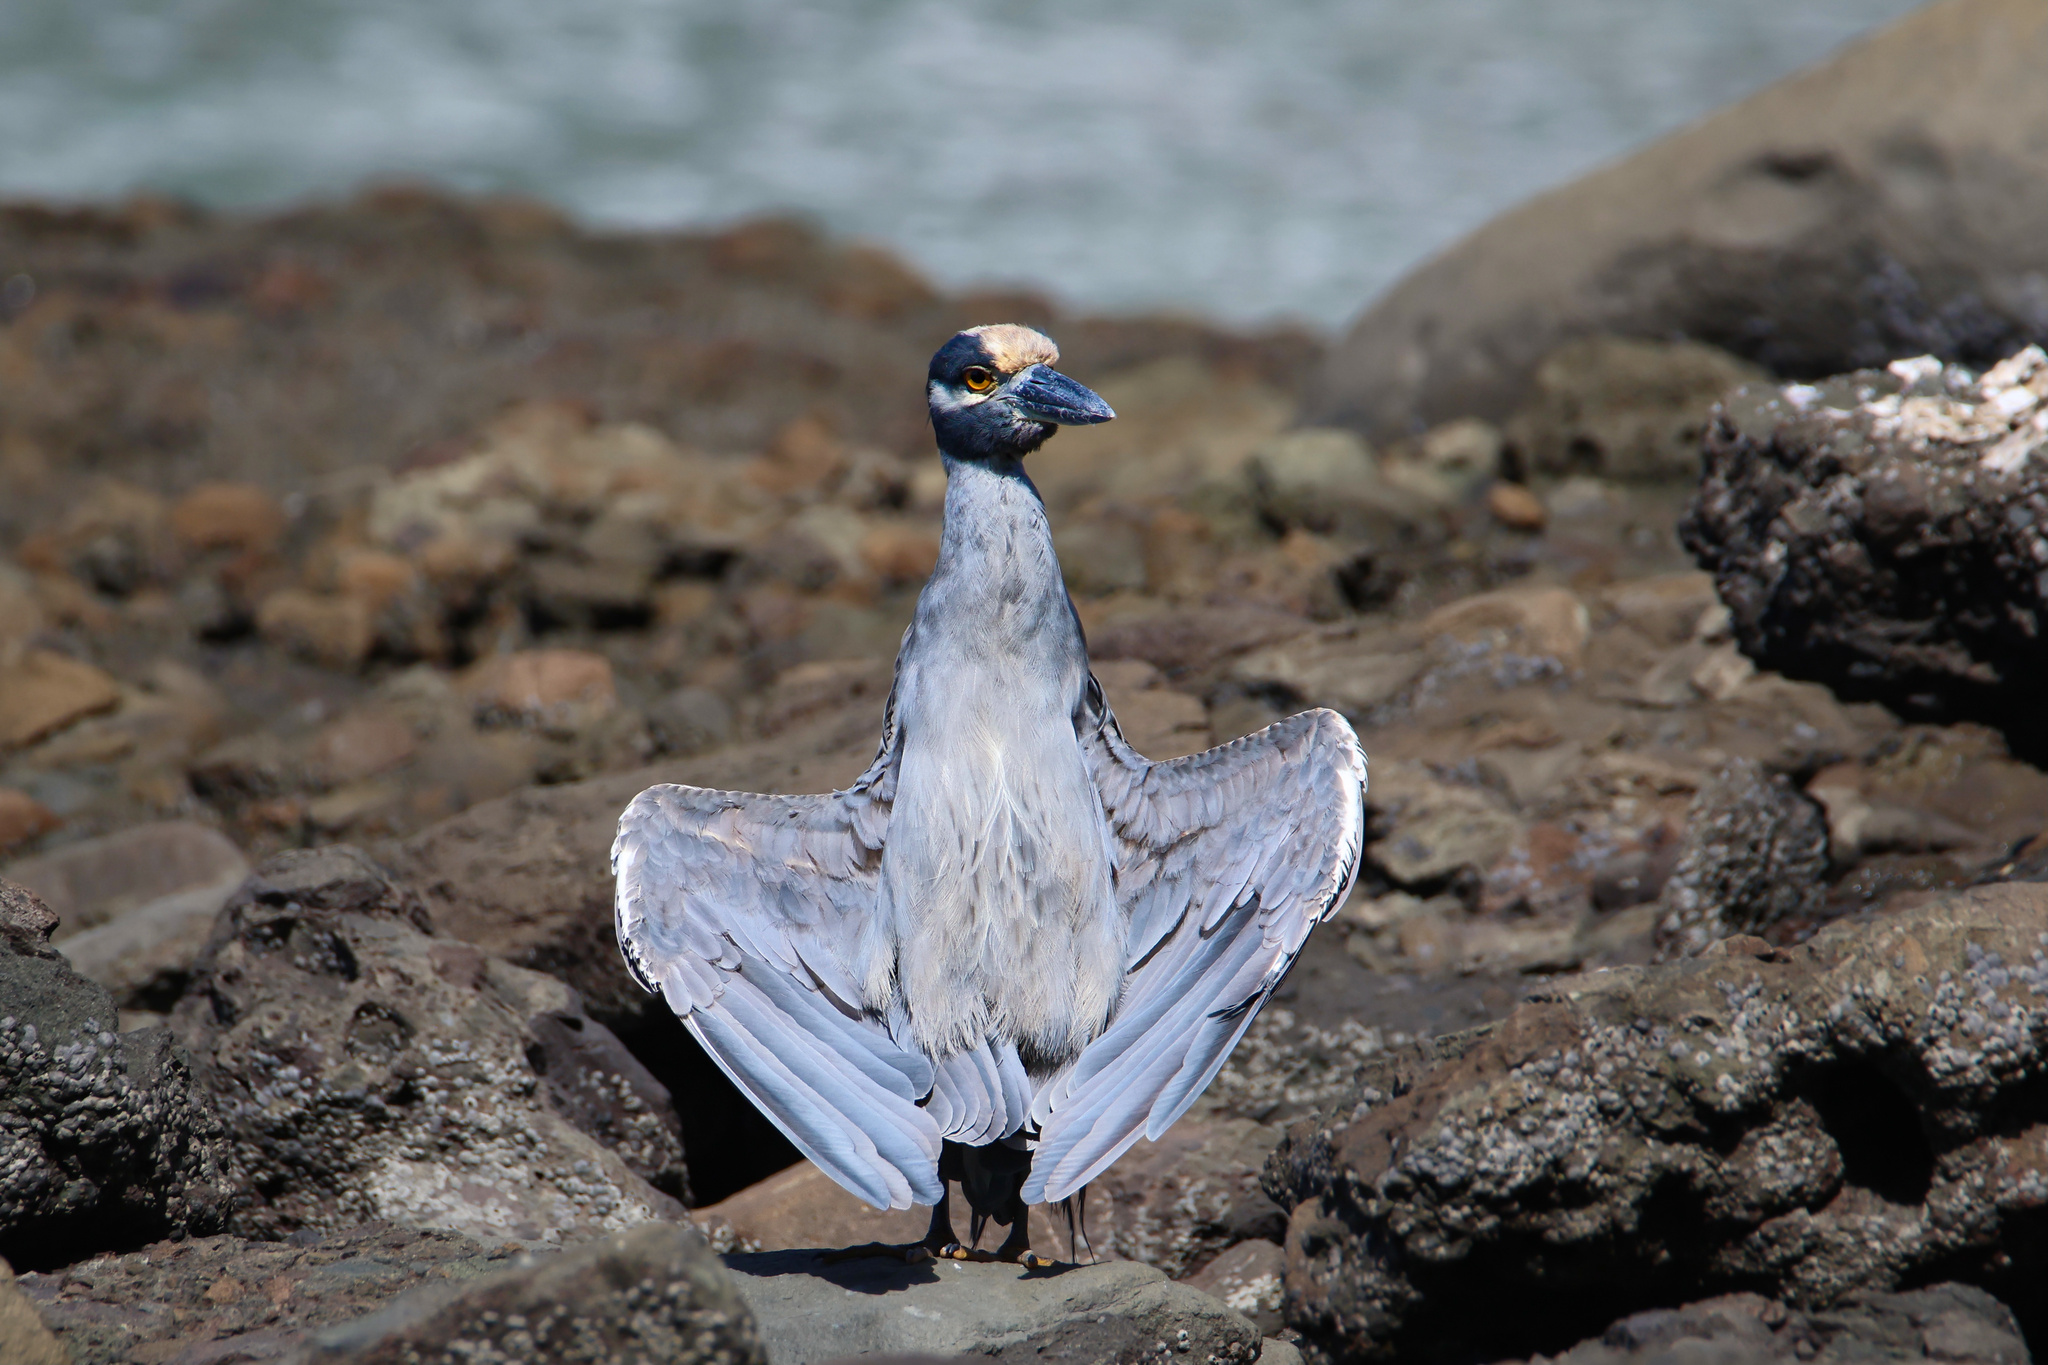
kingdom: Animalia
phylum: Chordata
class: Aves
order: Pelecaniformes
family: Ardeidae
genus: Nyctanassa
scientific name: Nyctanassa violacea
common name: Yellow-crowned night heron
